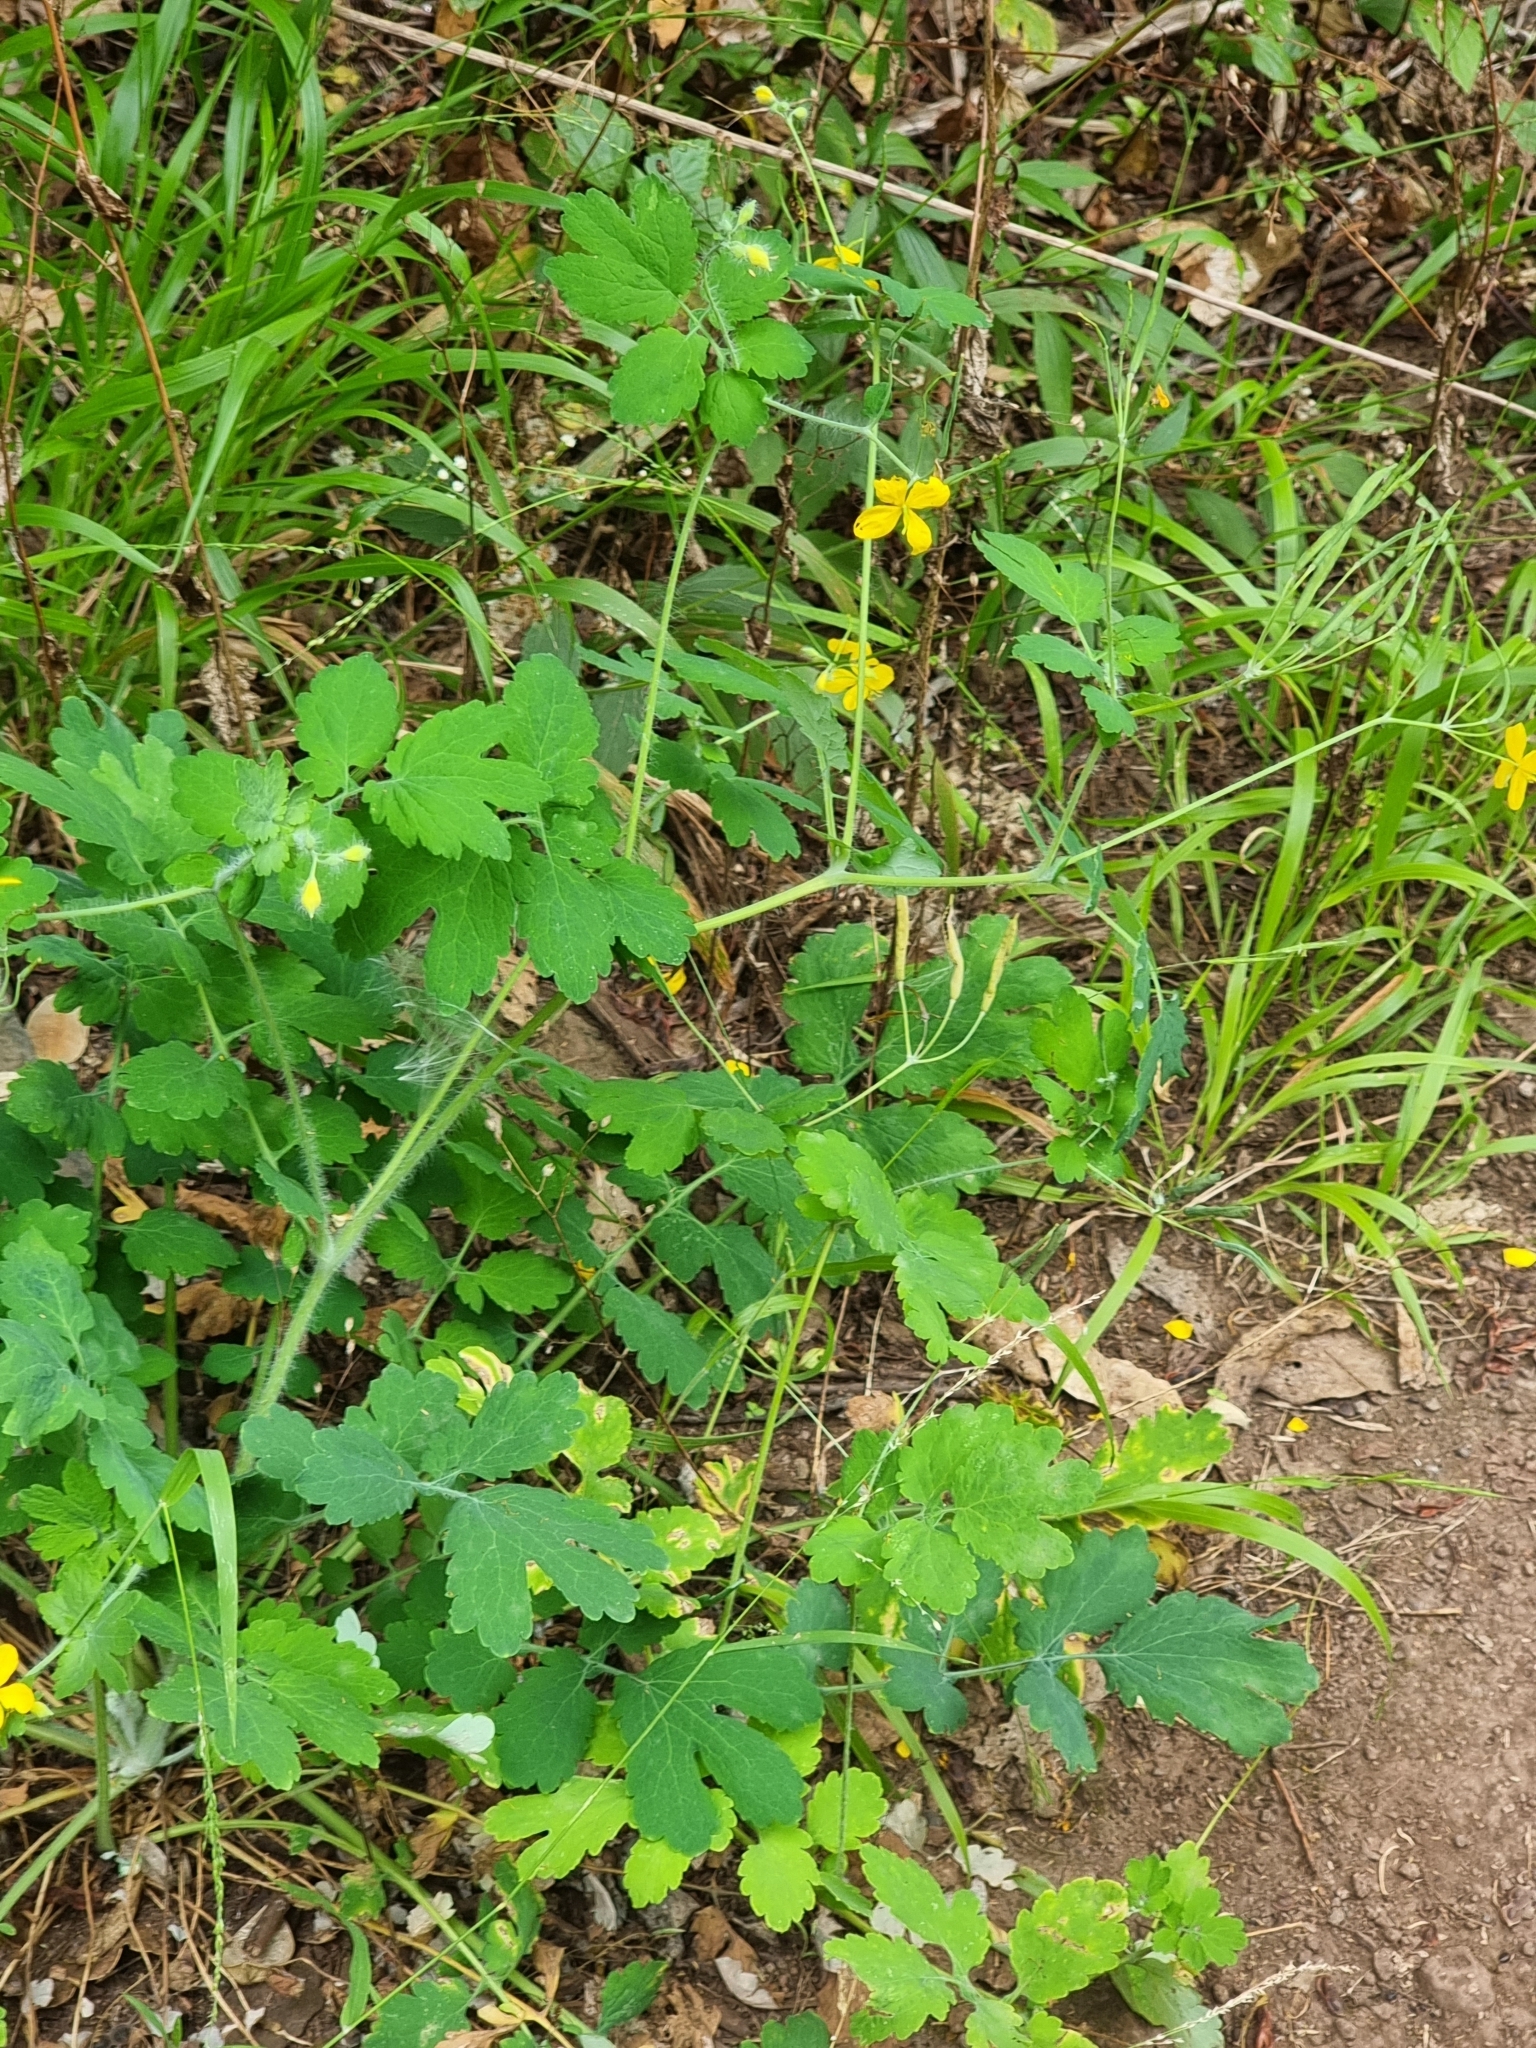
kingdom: Plantae
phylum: Tracheophyta
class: Magnoliopsida
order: Ranunculales
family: Papaveraceae
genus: Chelidonium
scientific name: Chelidonium majus
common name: Greater celandine
